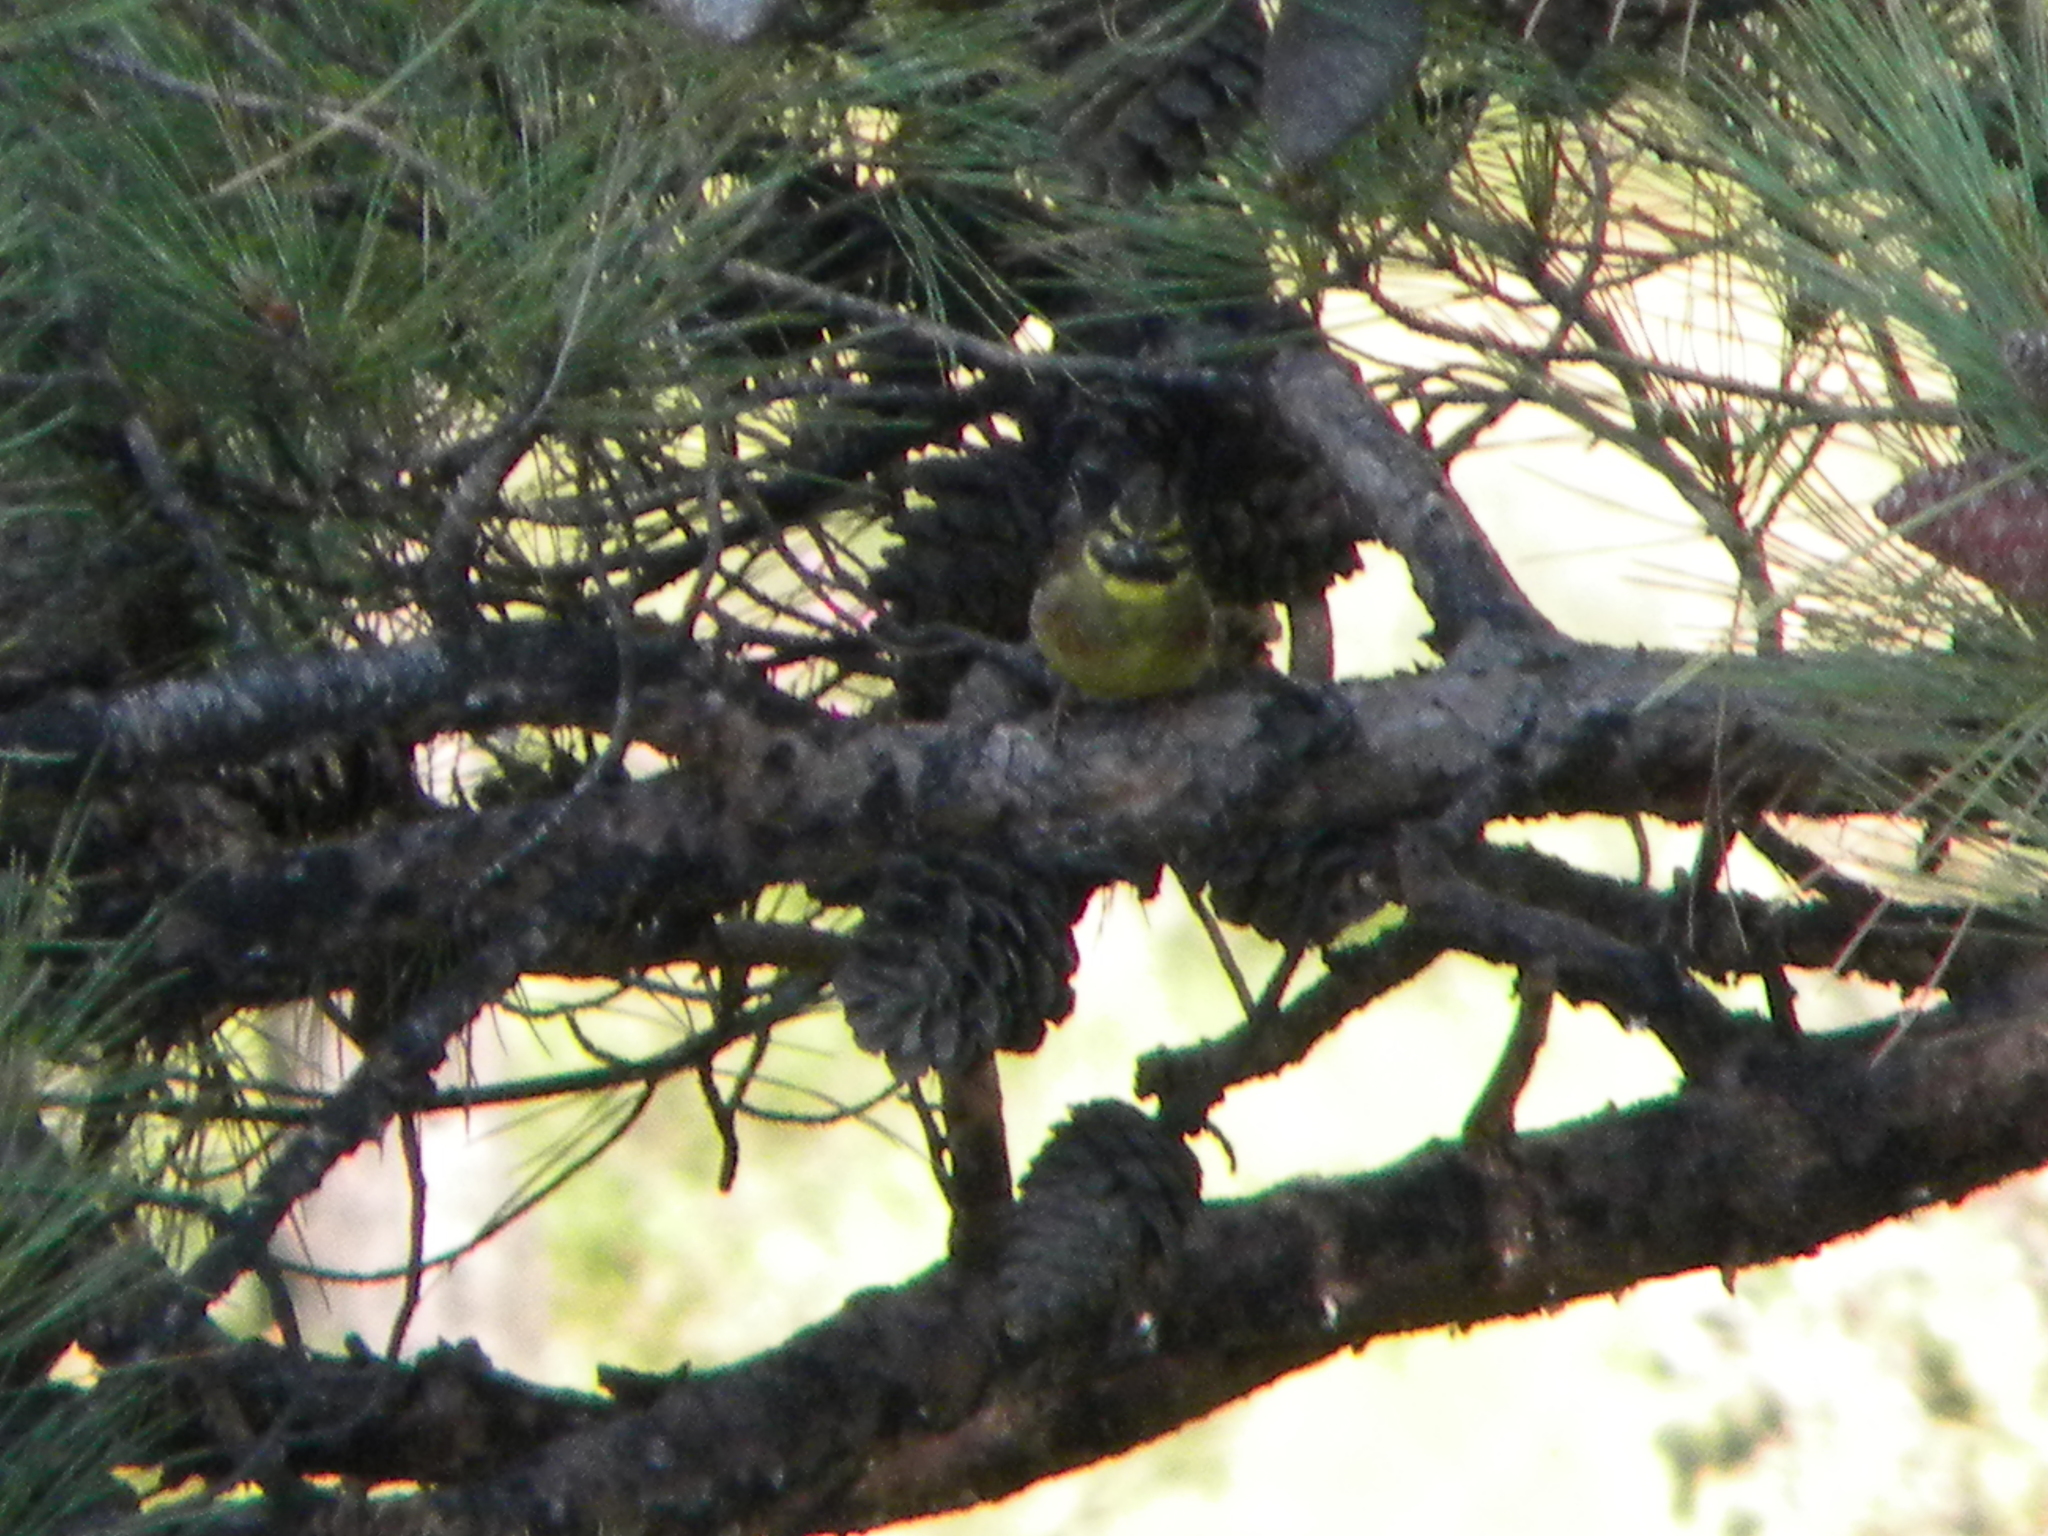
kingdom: Animalia
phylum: Chordata
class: Aves
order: Passeriformes
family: Emberizidae
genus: Emberiza
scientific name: Emberiza cirlus
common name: Cirl bunting
